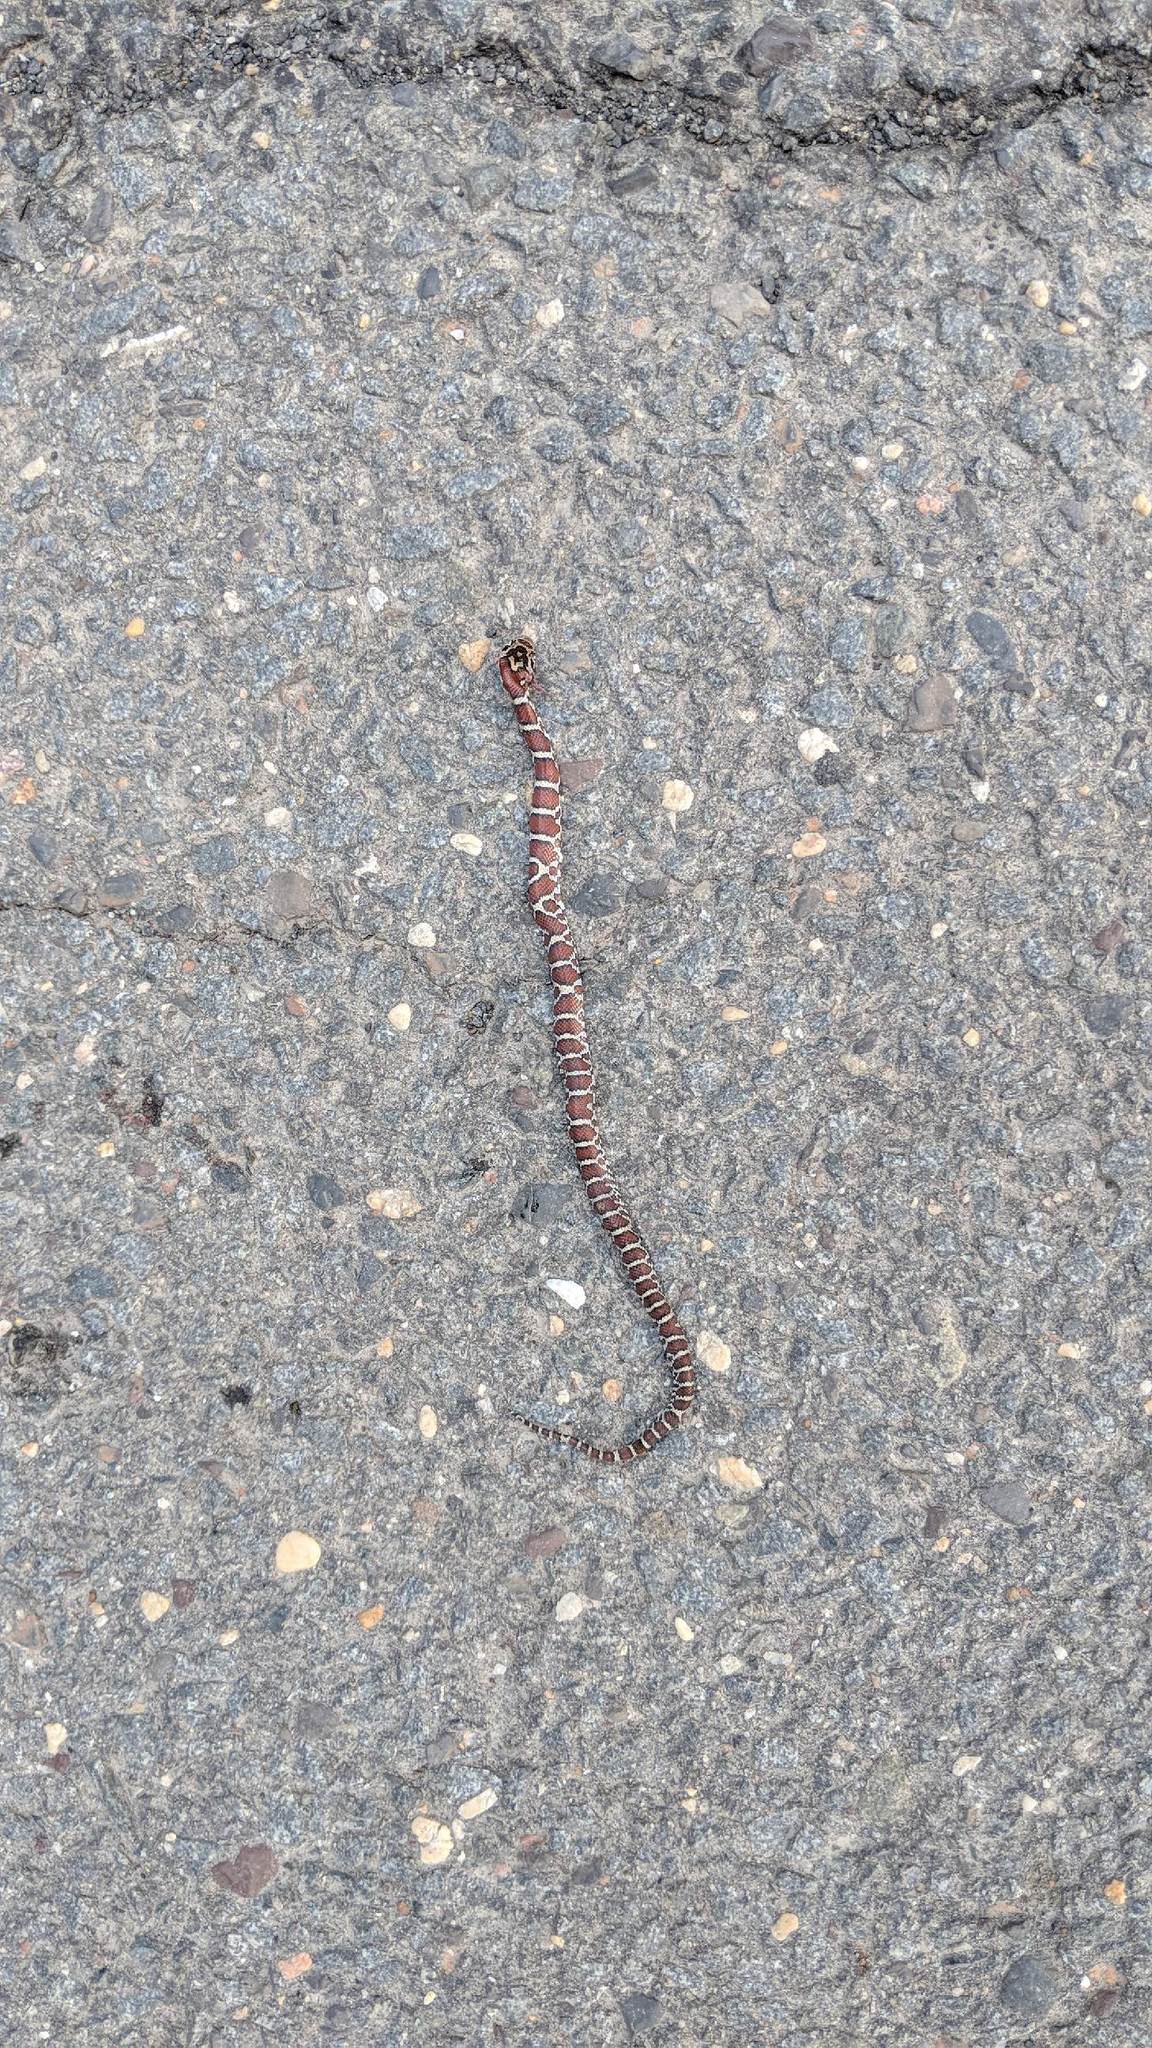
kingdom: Animalia
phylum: Chordata
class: Squamata
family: Colubridae
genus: Lampropeltis
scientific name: Lampropeltis triangulum
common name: Eastern milksnake
